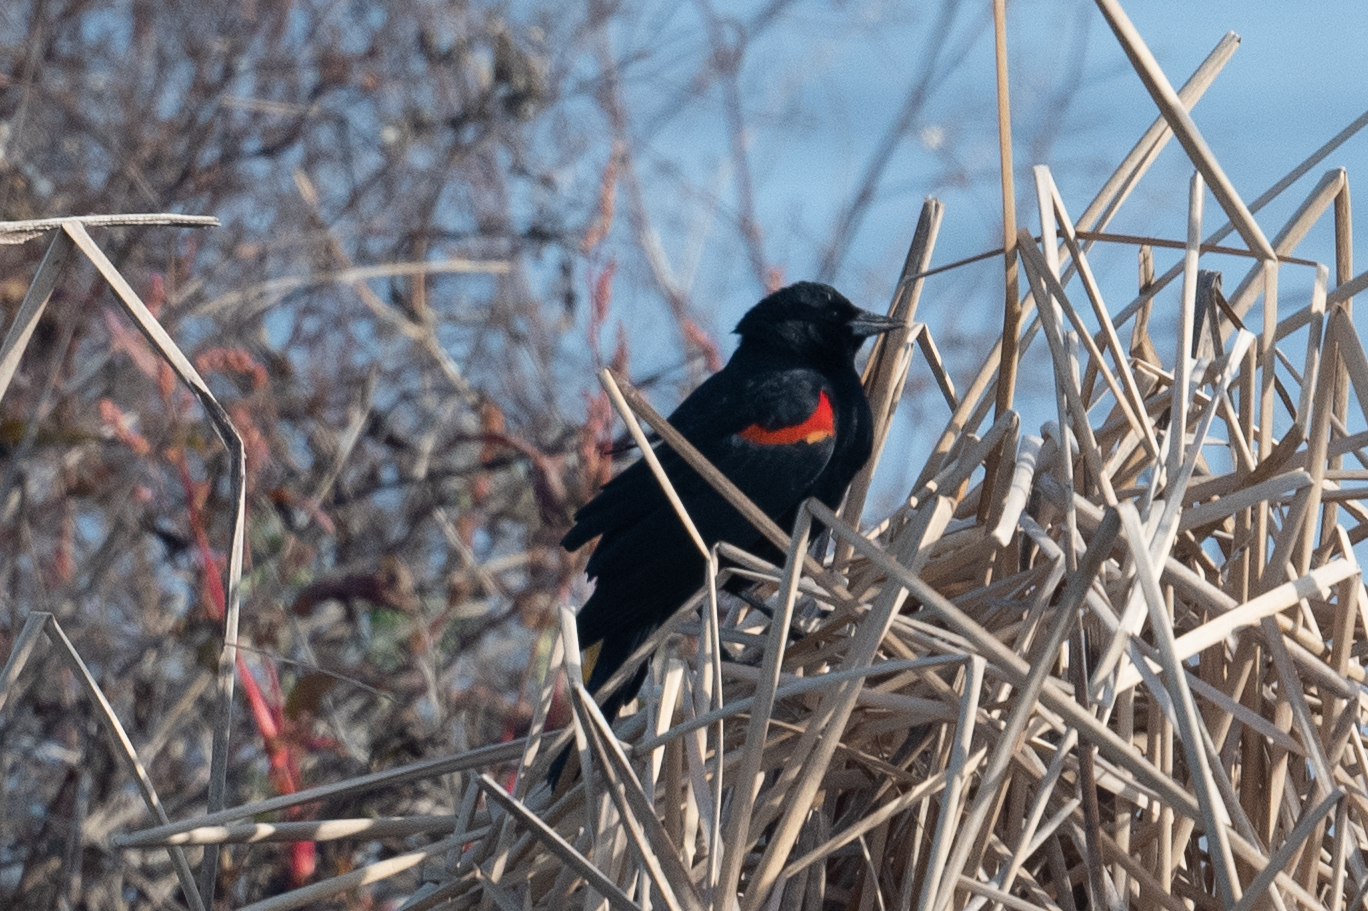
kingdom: Animalia
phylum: Chordata
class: Aves
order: Passeriformes
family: Icteridae
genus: Agelaius
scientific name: Agelaius phoeniceus
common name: Red-winged blackbird
